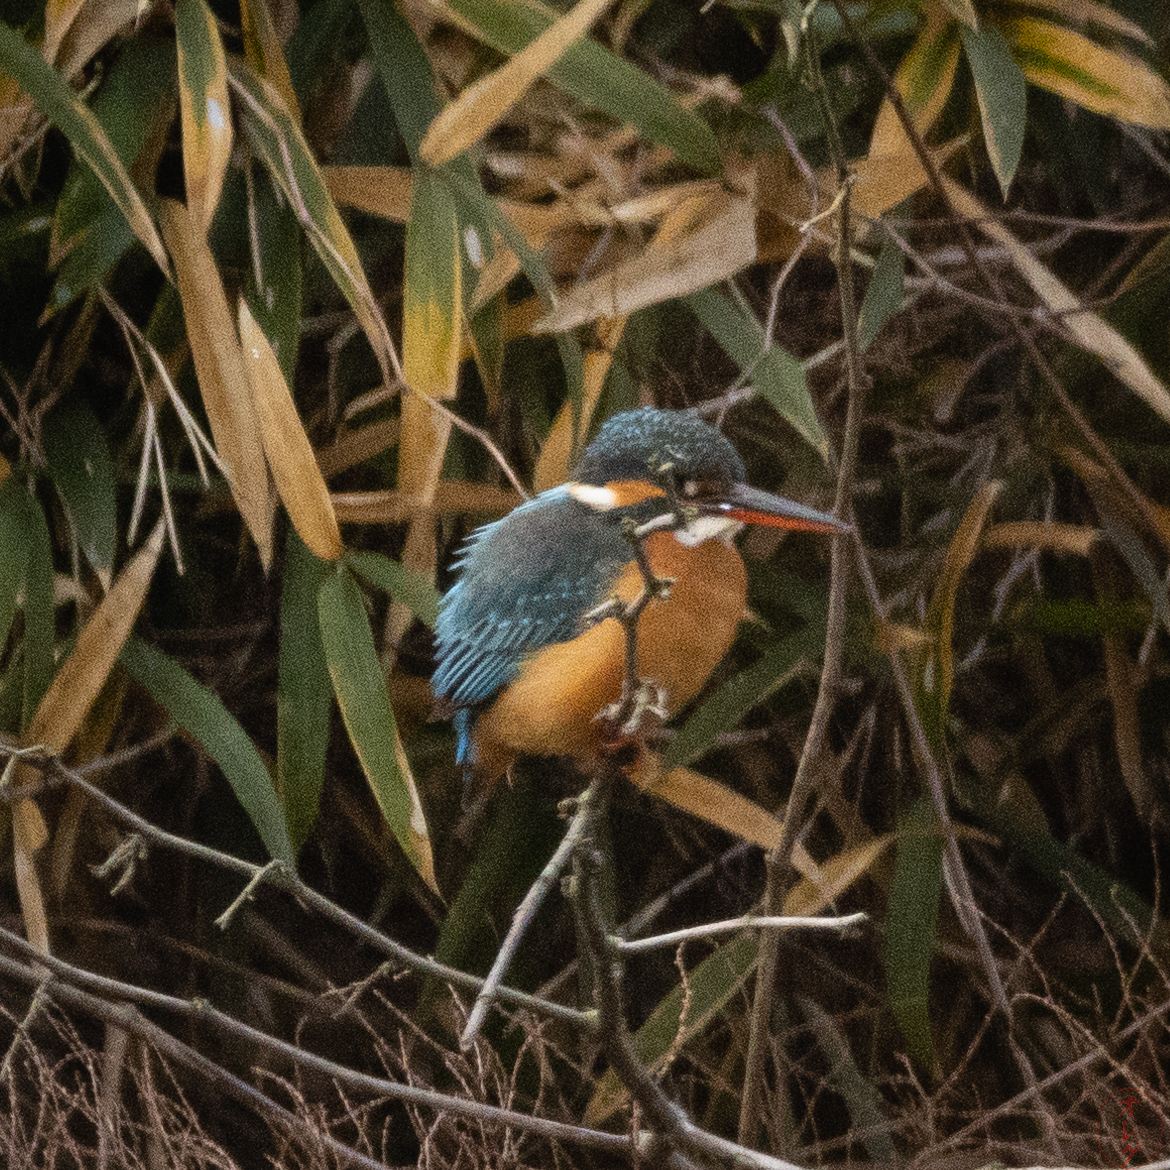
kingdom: Animalia
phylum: Chordata
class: Aves
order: Coraciiformes
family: Alcedinidae
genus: Alcedo
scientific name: Alcedo atthis
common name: Common kingfisher
